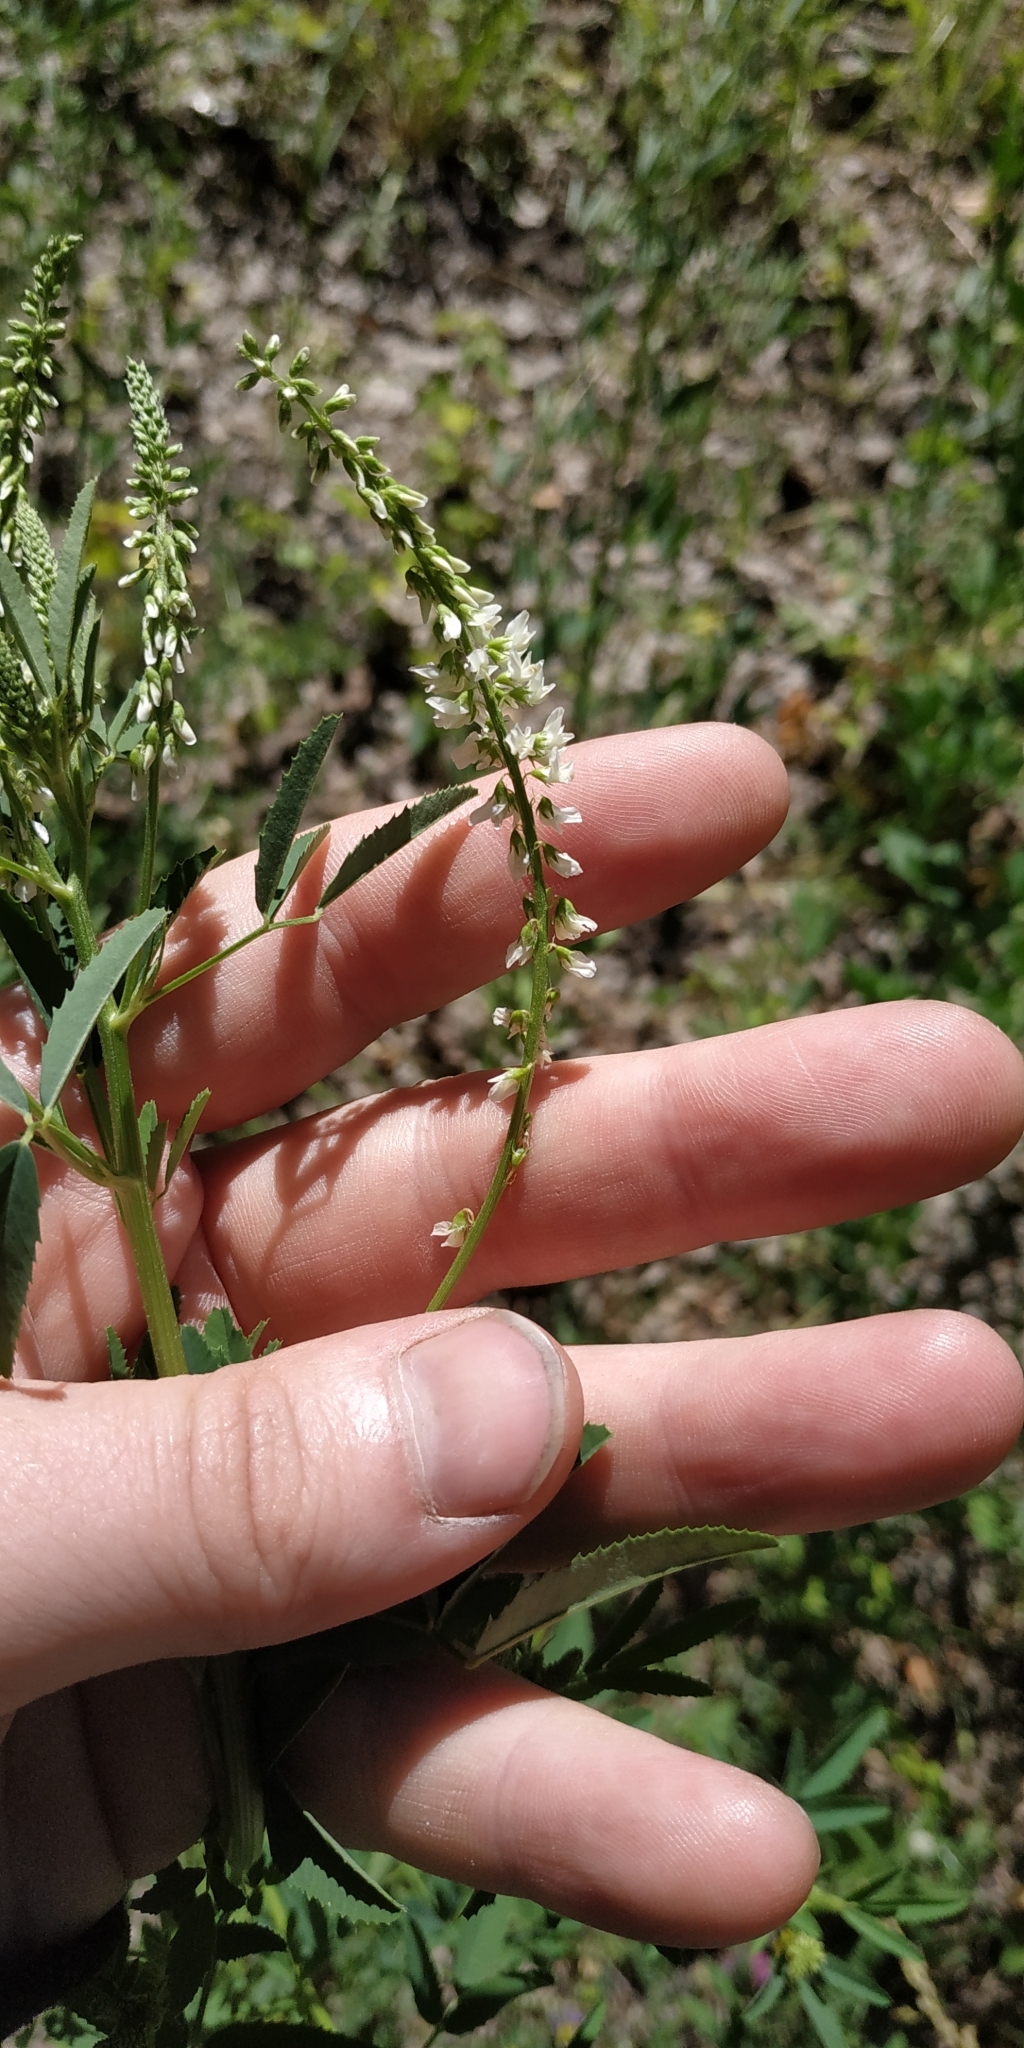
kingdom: Plantae
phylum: Tracheophyta
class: Magnoliopsida
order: Fabales
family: Fabaceae
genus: Melilotus
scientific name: Melilotus albus
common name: White melilot
